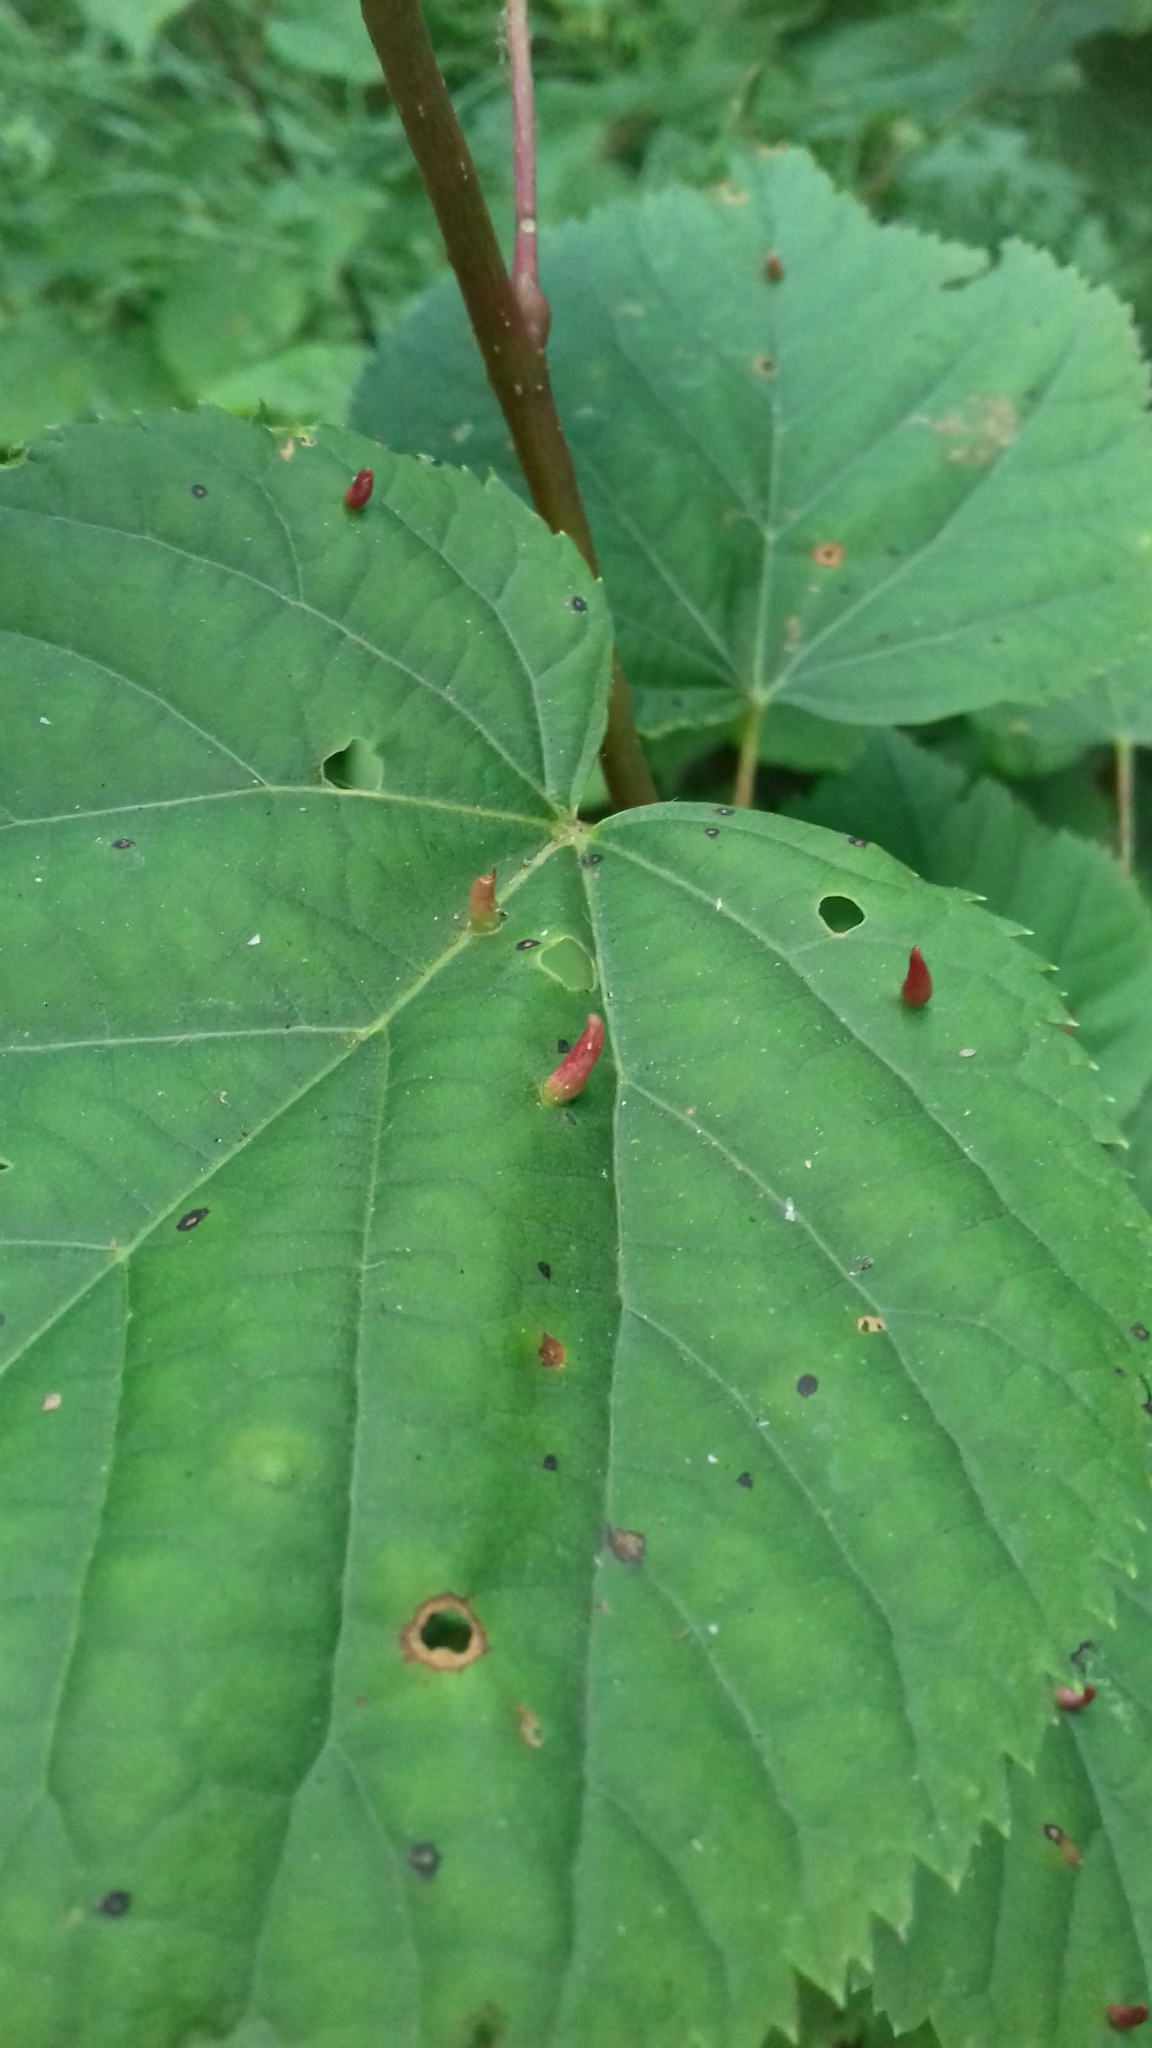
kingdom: Animalia
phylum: Arthropoda
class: Arachnida
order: Trombidiformes
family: Eriophyidae
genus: Eriophyes
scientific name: Eriophyes tiliae
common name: Red nail gall mite
